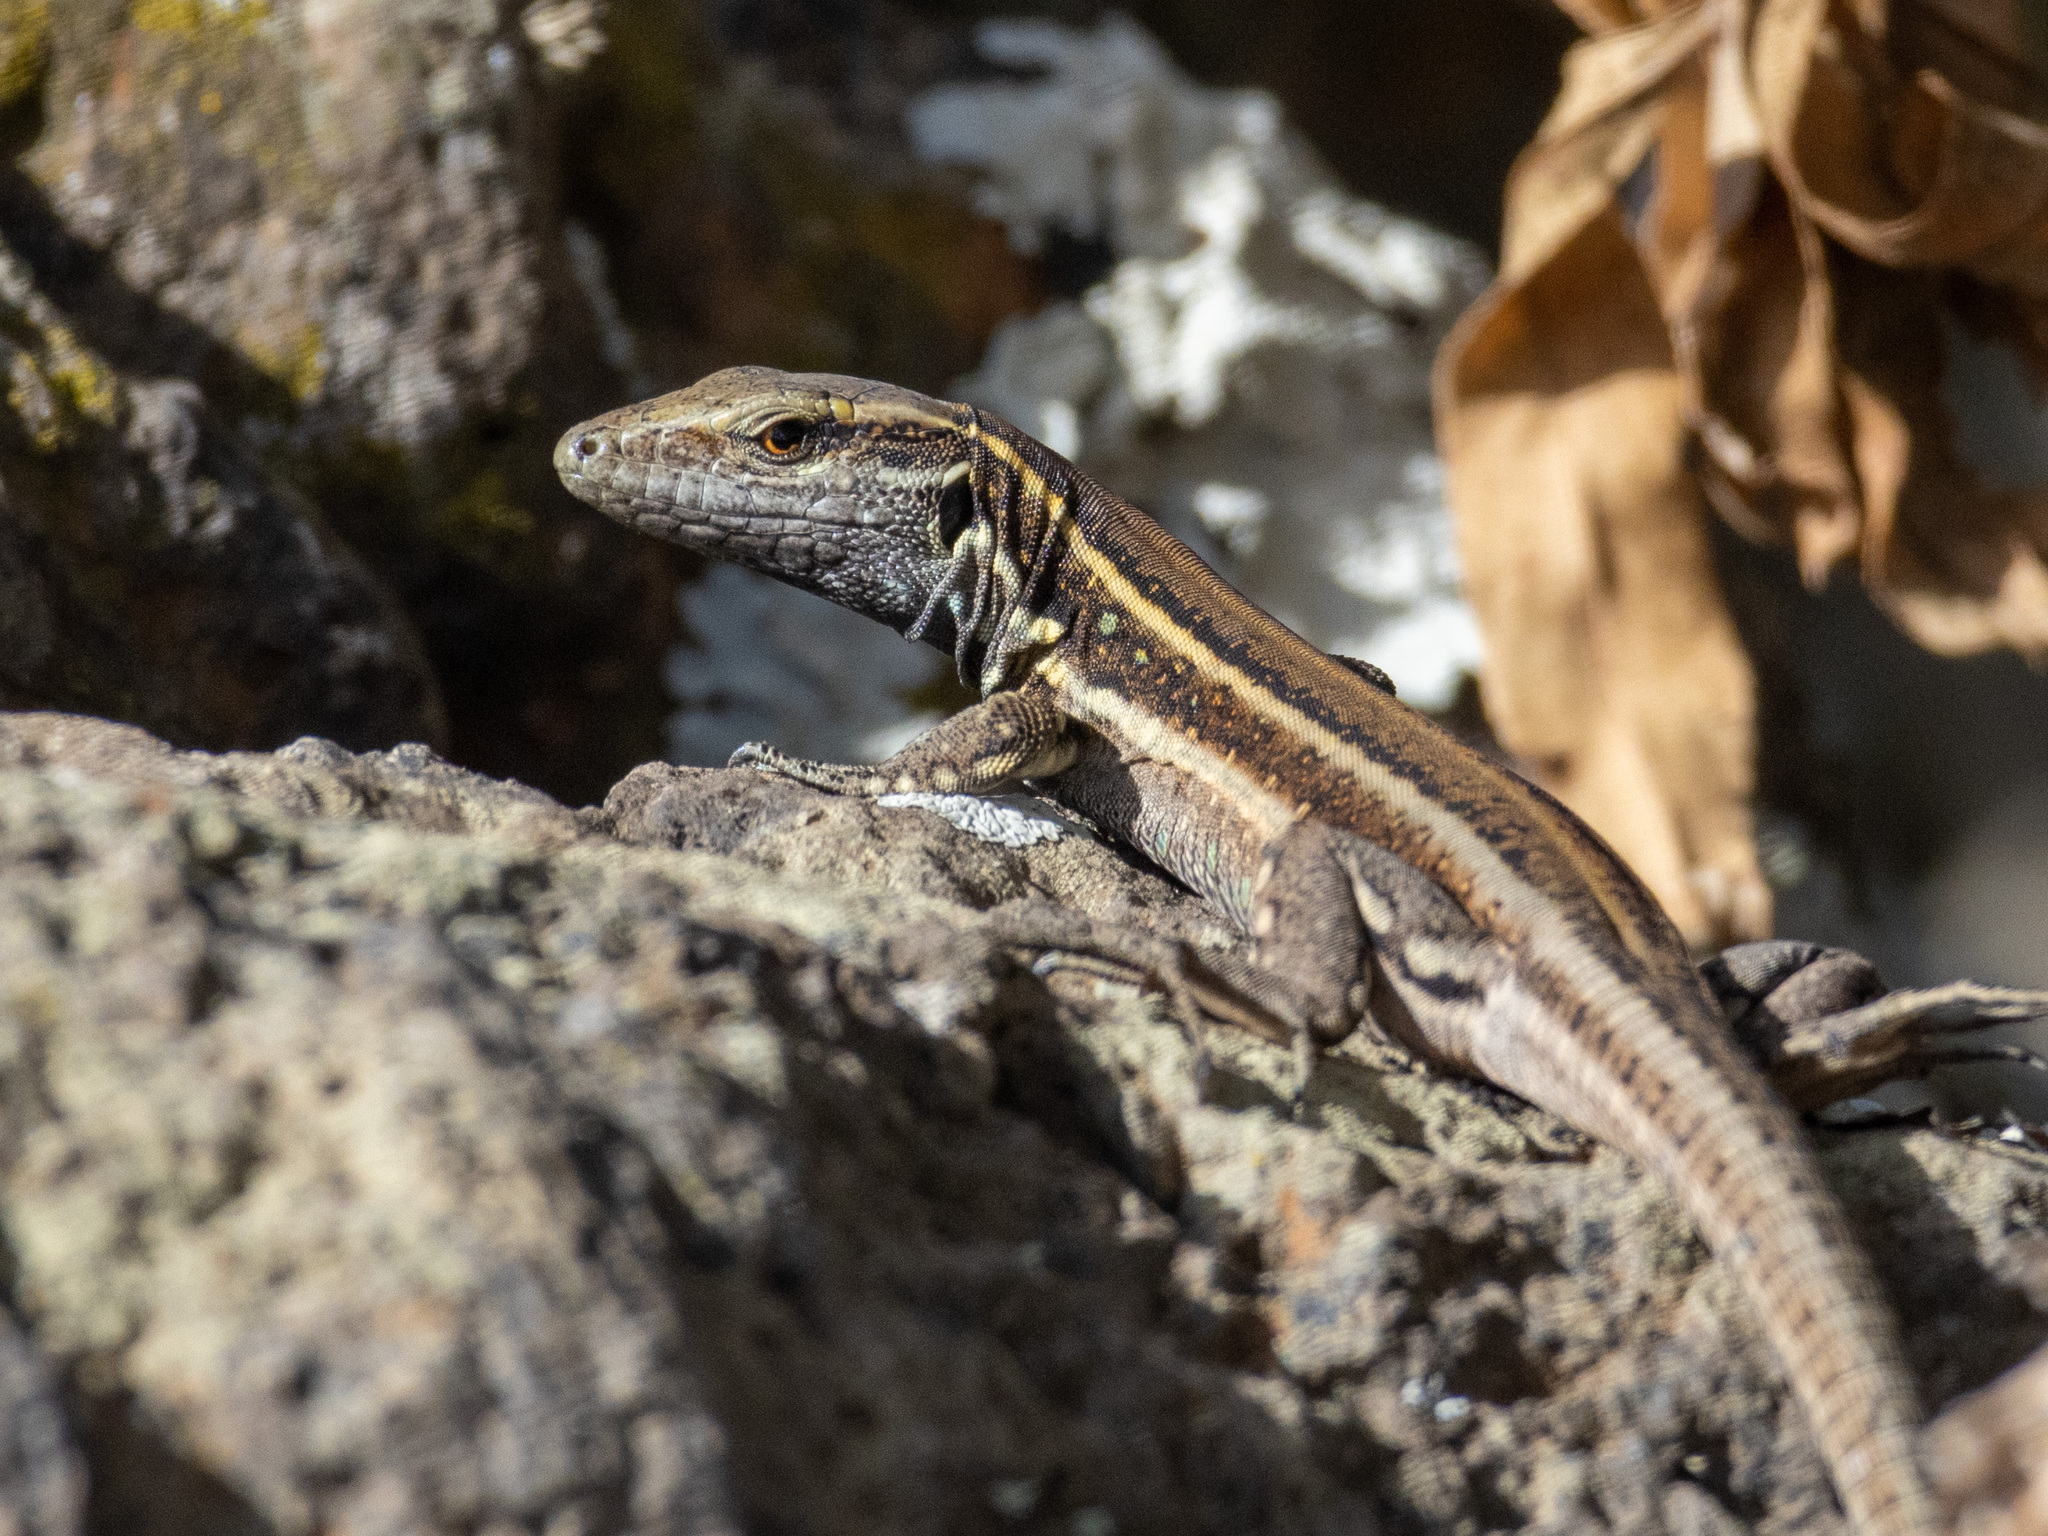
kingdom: Animalia
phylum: Chordata
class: Squamata
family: Lacertidae
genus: Gallotia
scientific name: Gallotia caesaris
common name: Boettger's lizard
